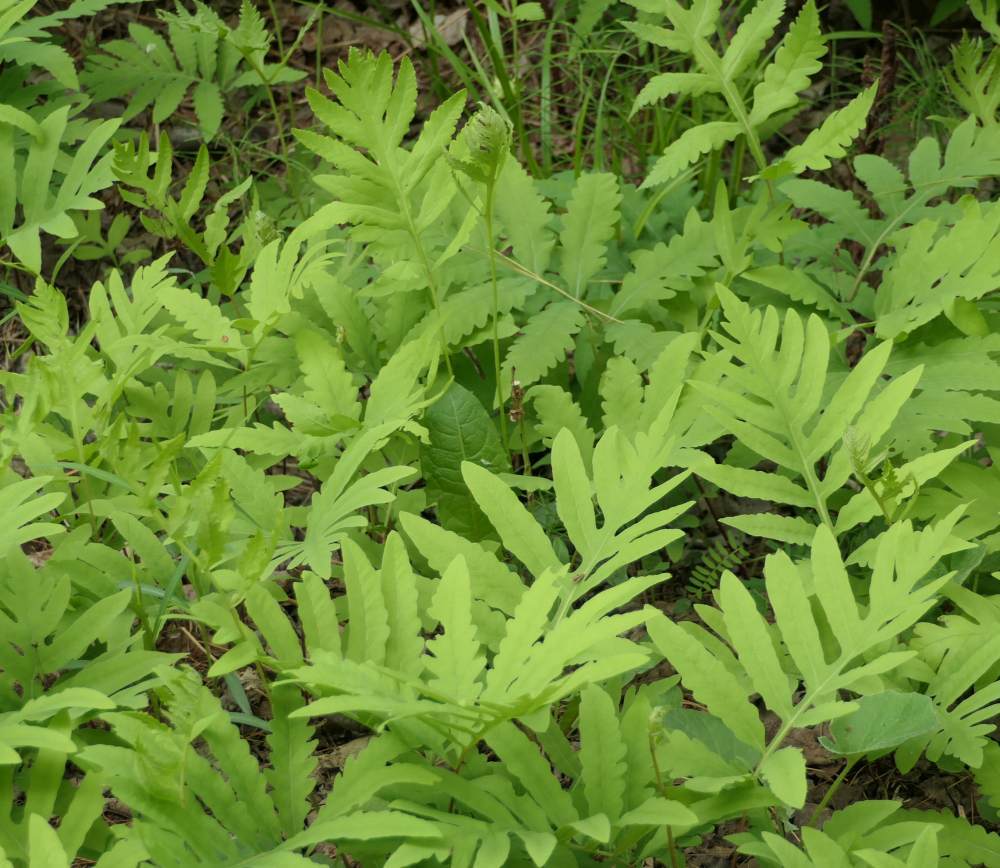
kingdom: Plantae
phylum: Tracheophyta
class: Polypodiopsida
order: Polypodiales
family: Onocleaceae
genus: Onoclea
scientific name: Onoclea sensibilis
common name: Sensitive fern
